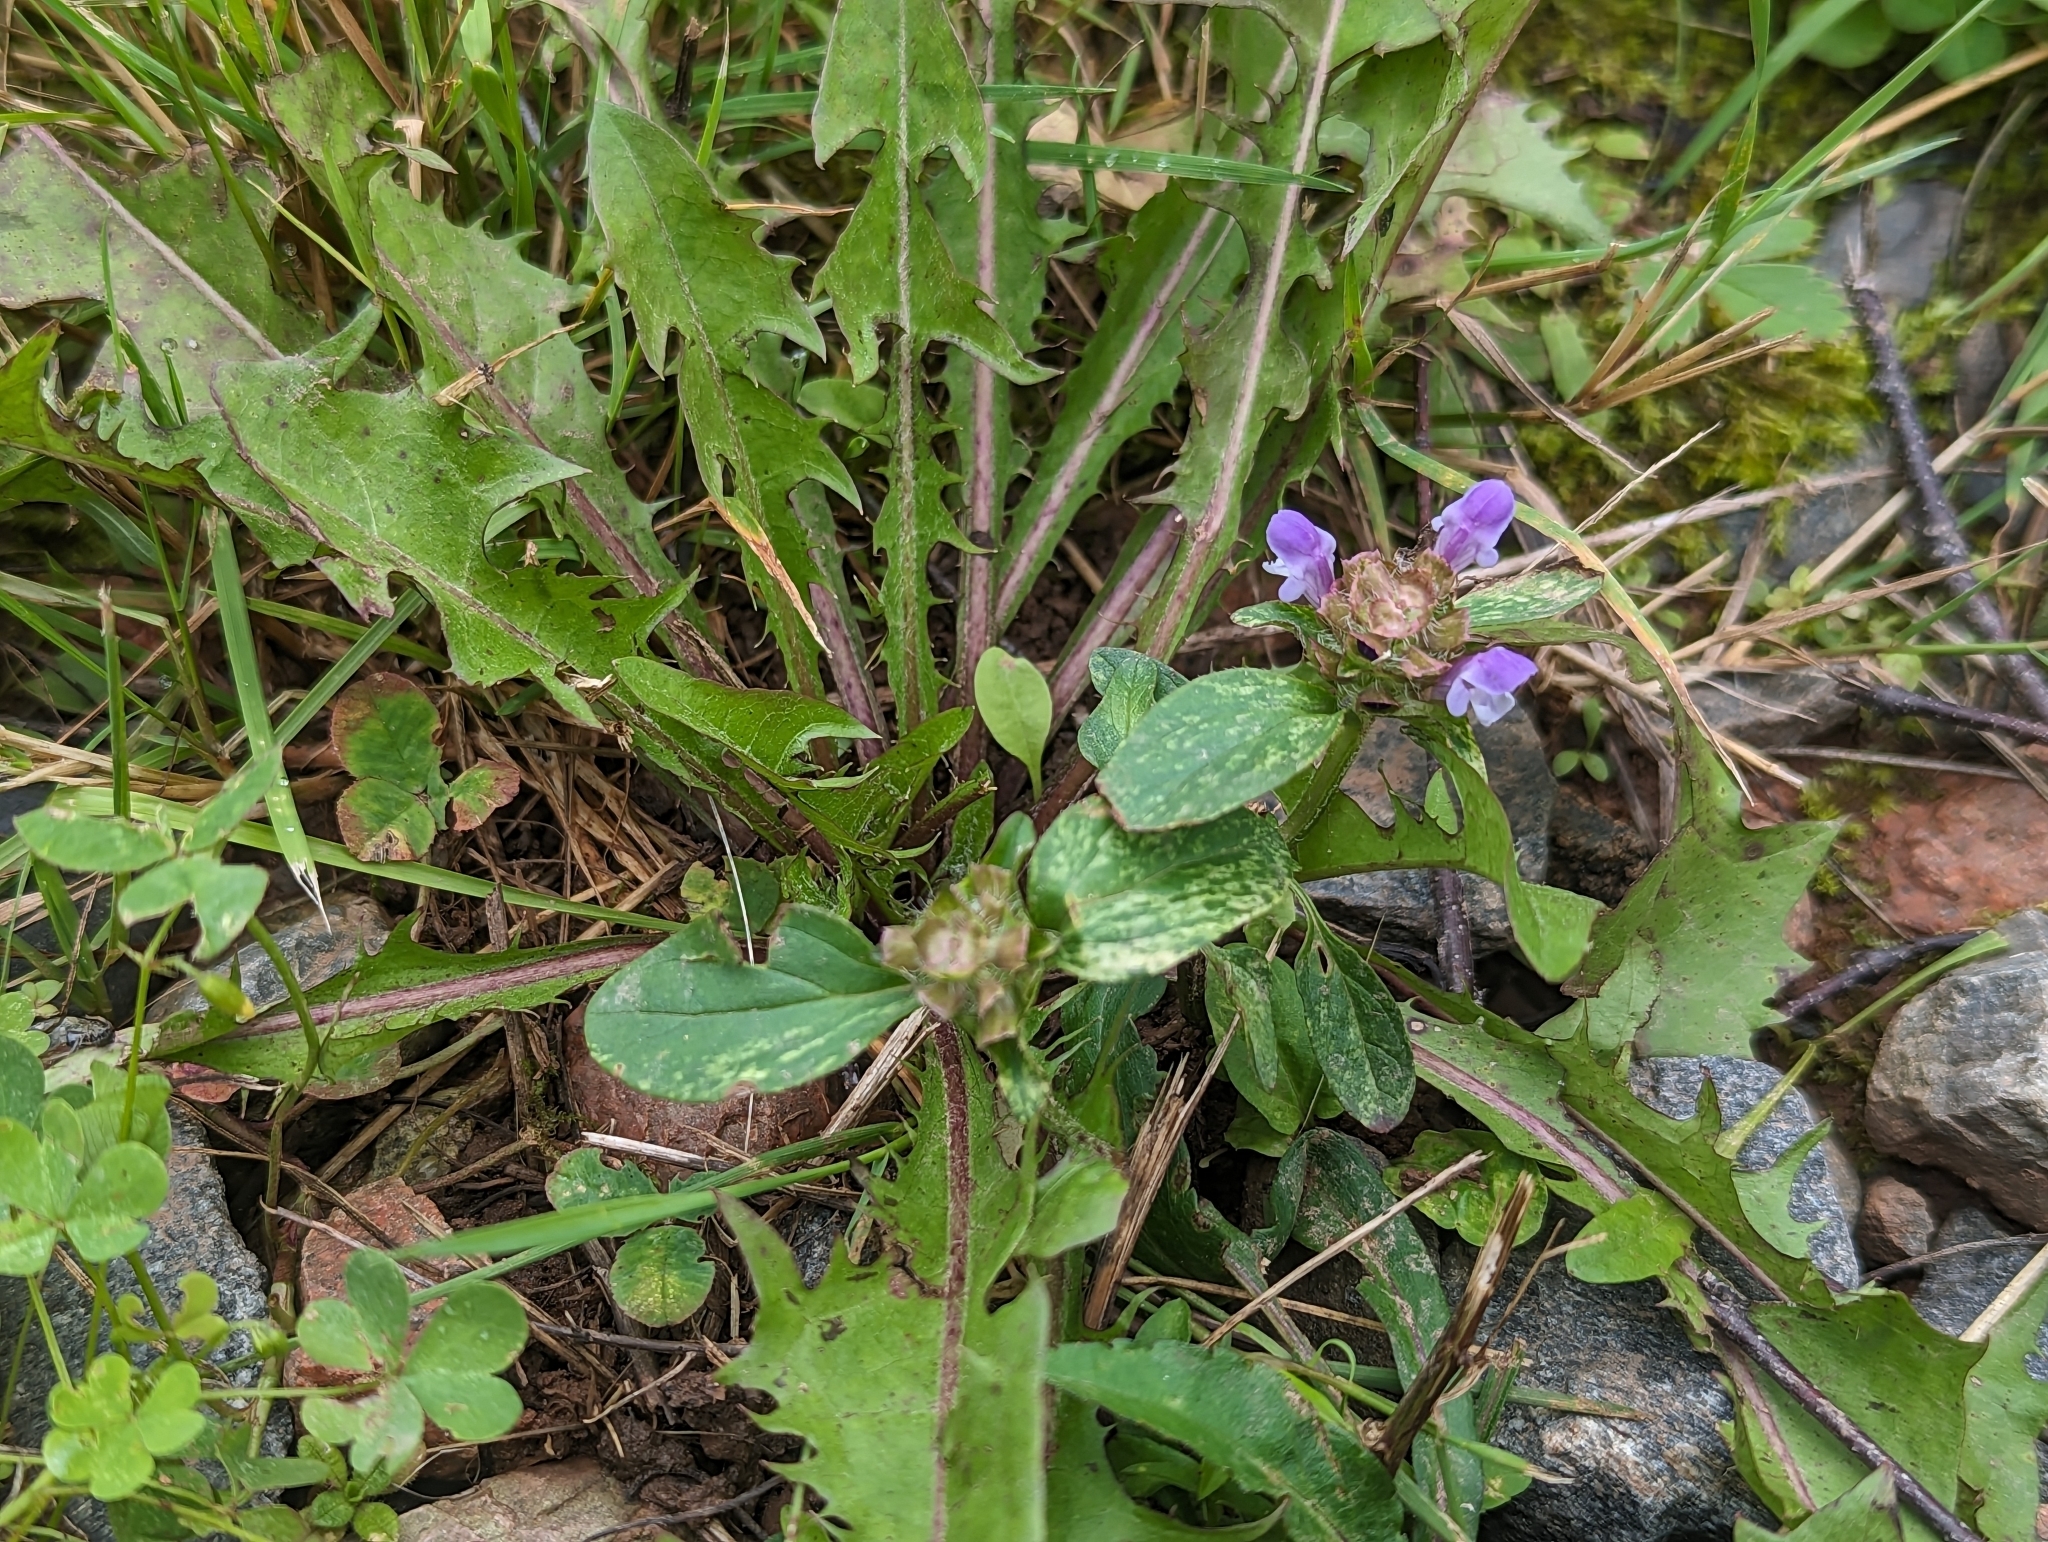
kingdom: Plantae
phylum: Tracheophyta
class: Magnoliopsida
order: Lamiales
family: Lamiaceae
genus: Prunella
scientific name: Prunella vulgaris
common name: Heal-all
